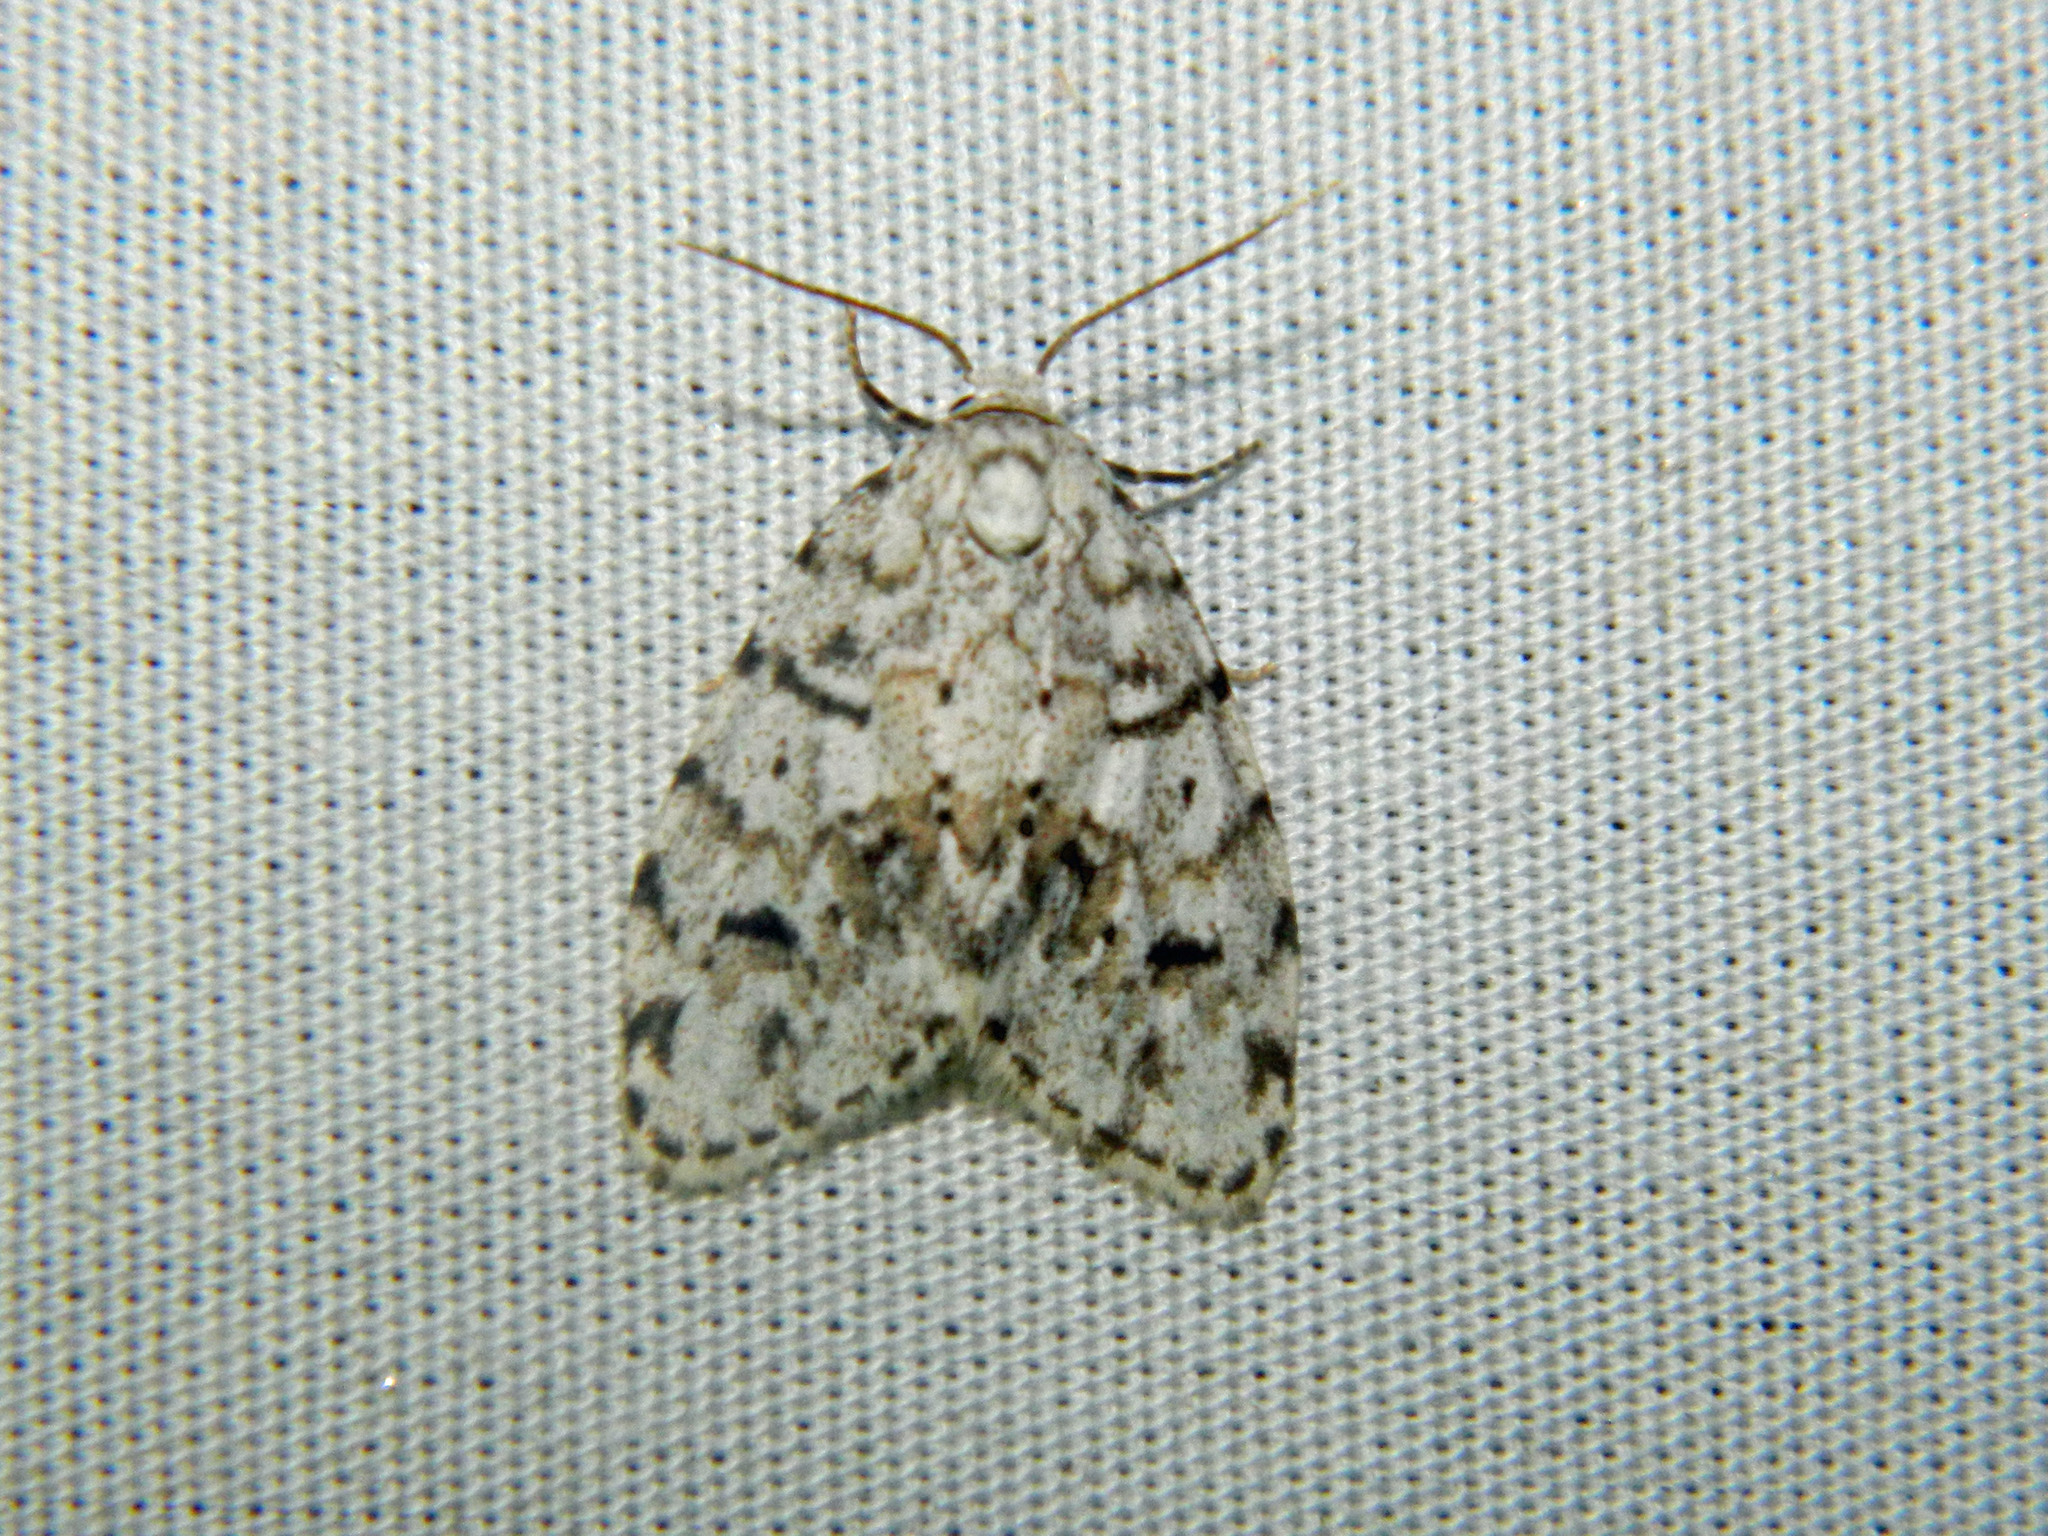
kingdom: Animalia
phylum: Arthropoda
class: Insecta
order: Lepidoptera
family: Erebidae
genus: Clemensia
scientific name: Clemensia umbrata
